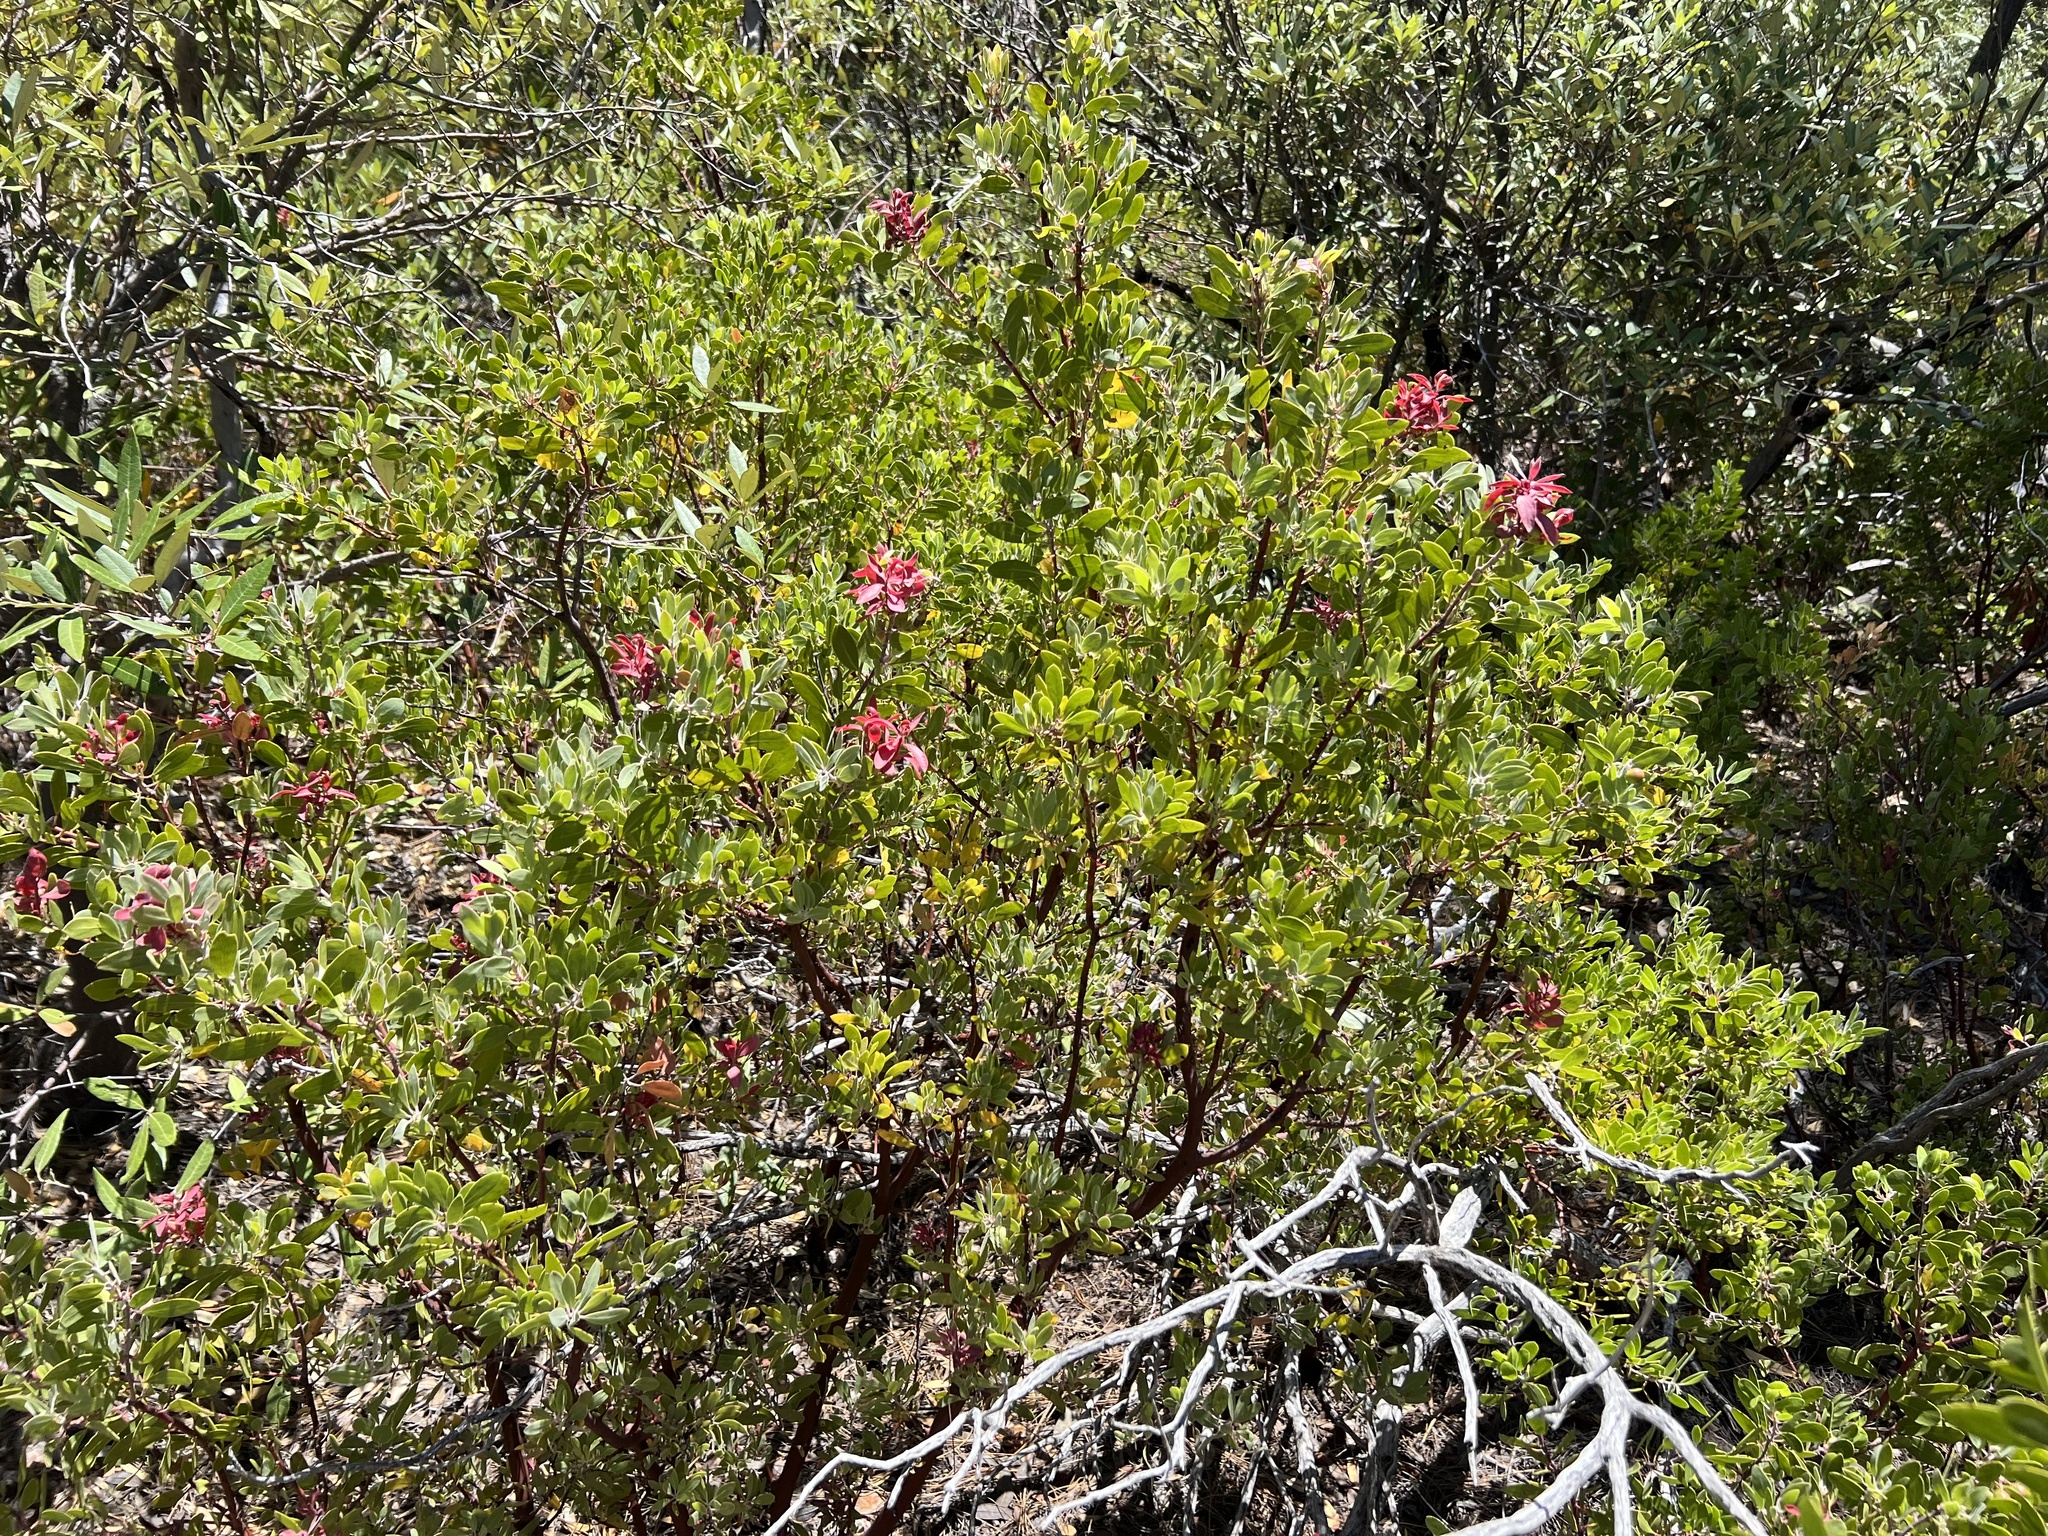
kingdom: Plantae
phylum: Tracheophyta
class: Magnoliopsida
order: Ericales
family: Ericaceae
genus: Arctostaphylos
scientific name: Arctostaphylos pungens
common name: Mexican manzanita
